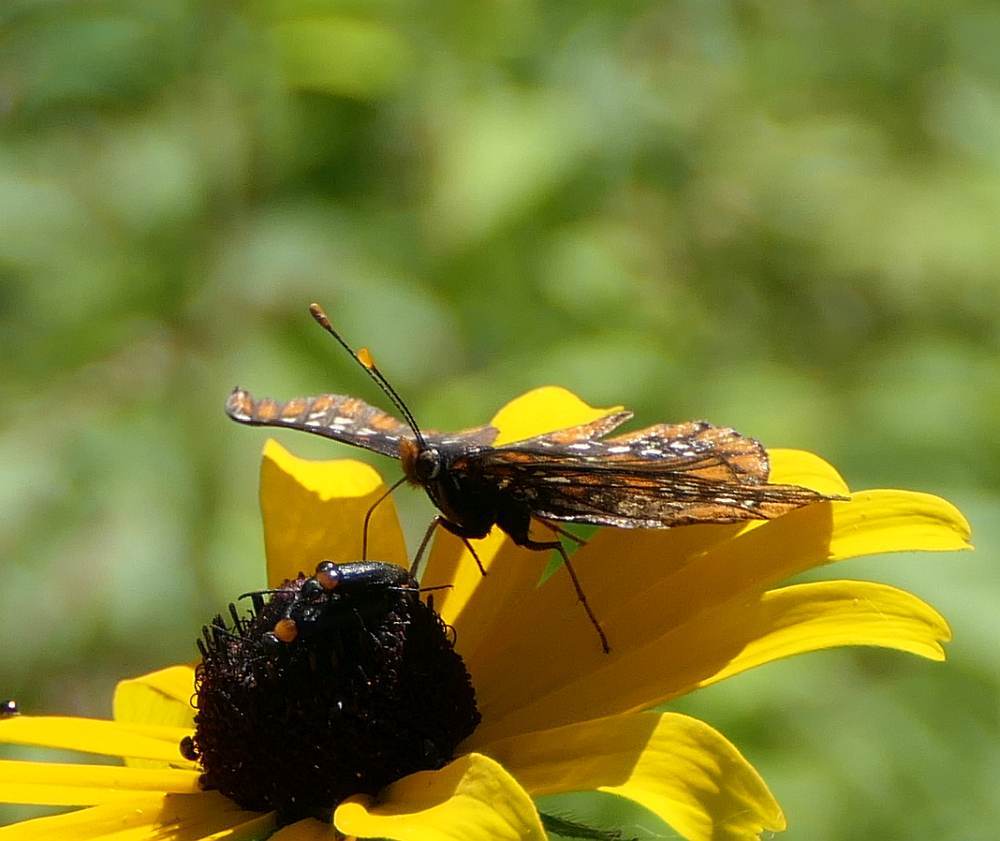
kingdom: Animalia
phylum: Arthropoda
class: Insecta
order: Lepidoptera
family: Nymphalidae
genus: Euphydryas
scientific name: Euphydryas phaeton
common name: Baltimore checkerspot
